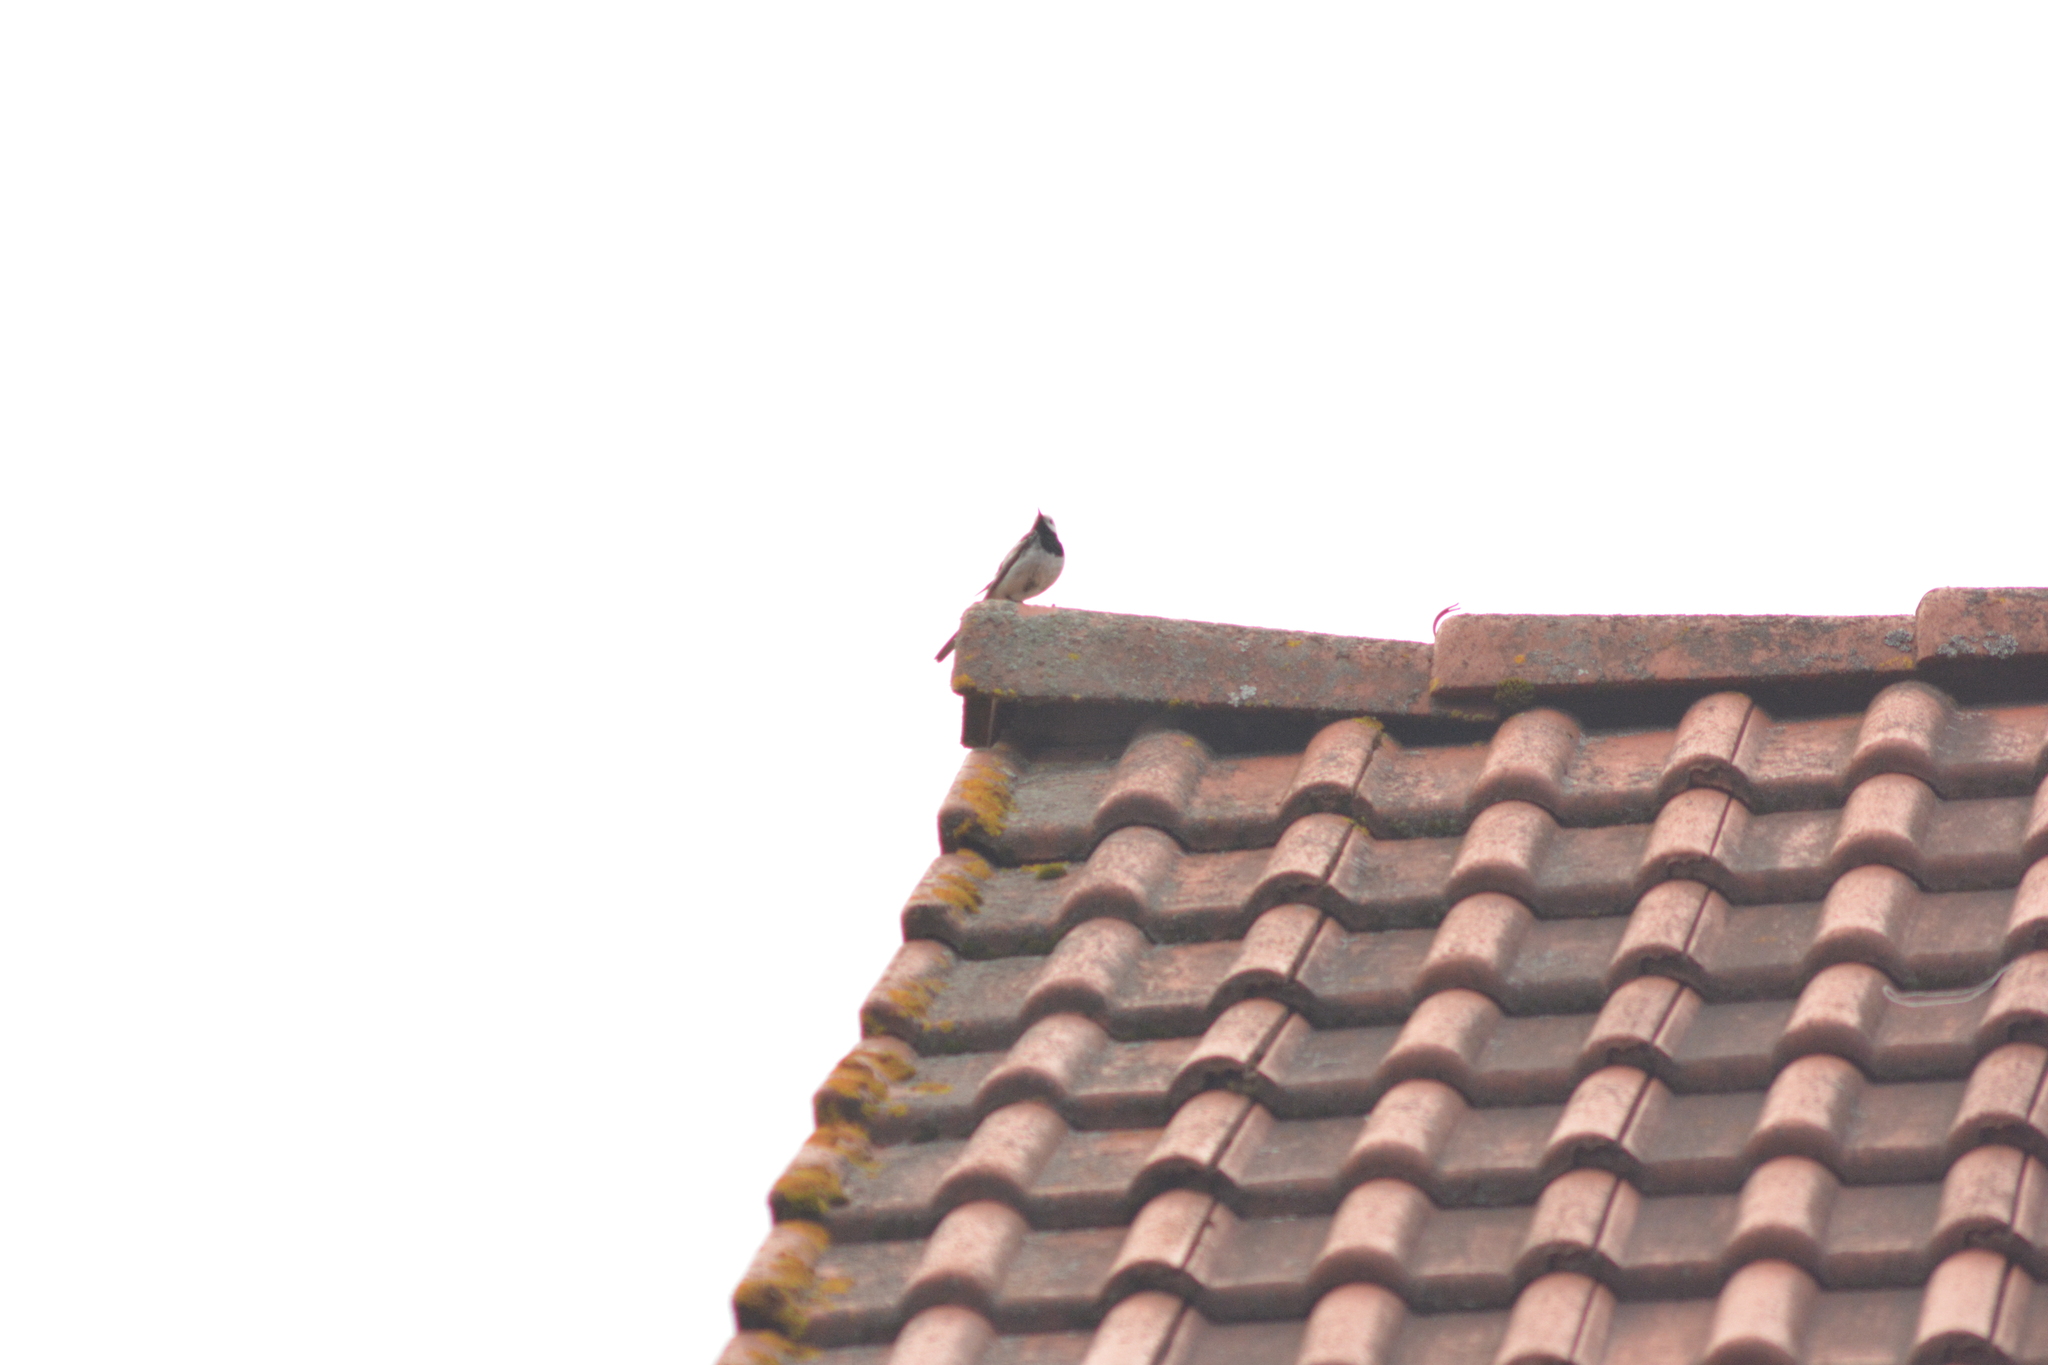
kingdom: Animalia
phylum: Chordata
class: Aves
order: Passeriformes
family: Motacillidae
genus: Motacilla
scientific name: Motacilla alba
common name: White wagtail
